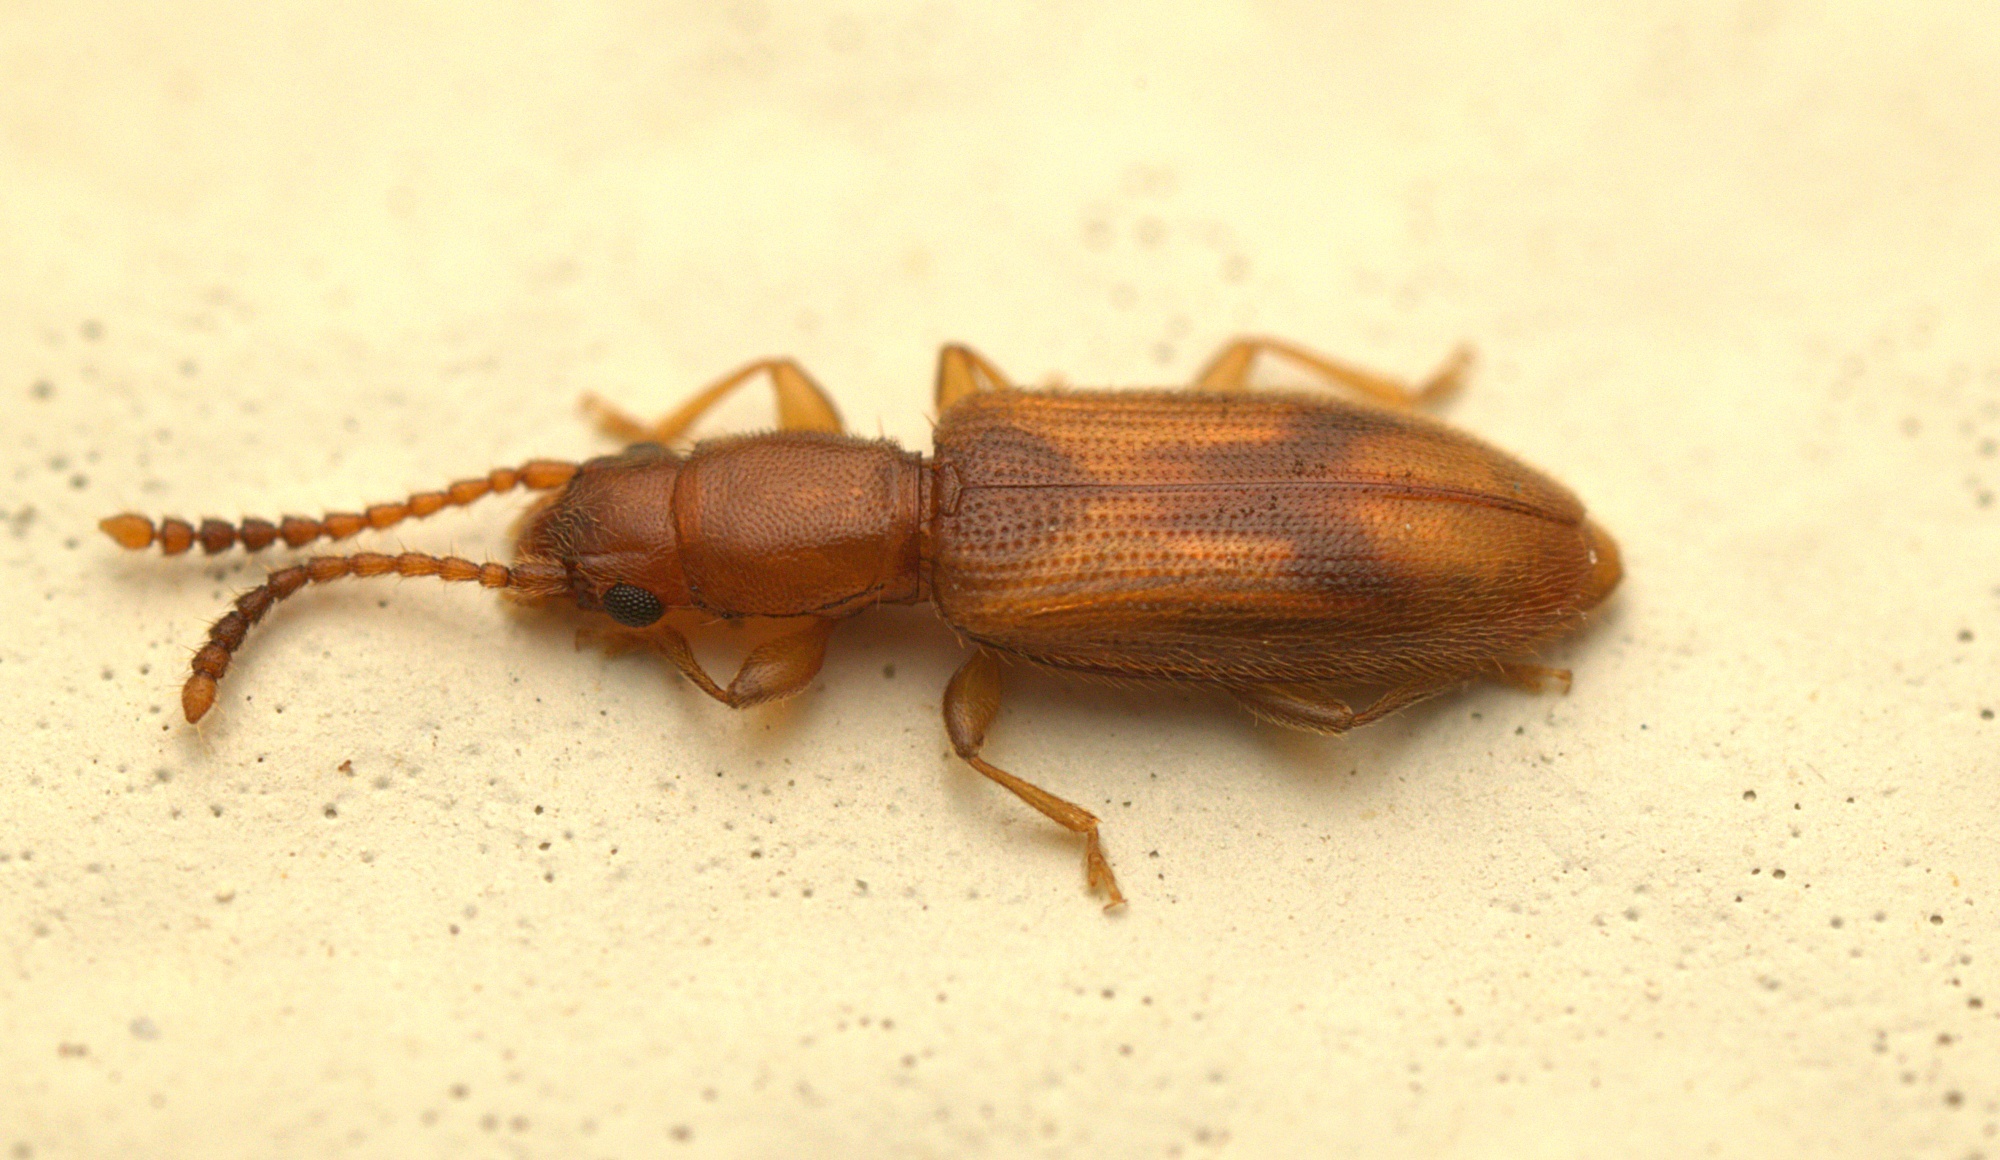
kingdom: Animalia
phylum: Arthropoda
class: Insecta
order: Coleoptera
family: Silvanidae
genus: Cryptamorpha
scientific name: Cryptamorpha desjardinsi
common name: Cryptamorpha
